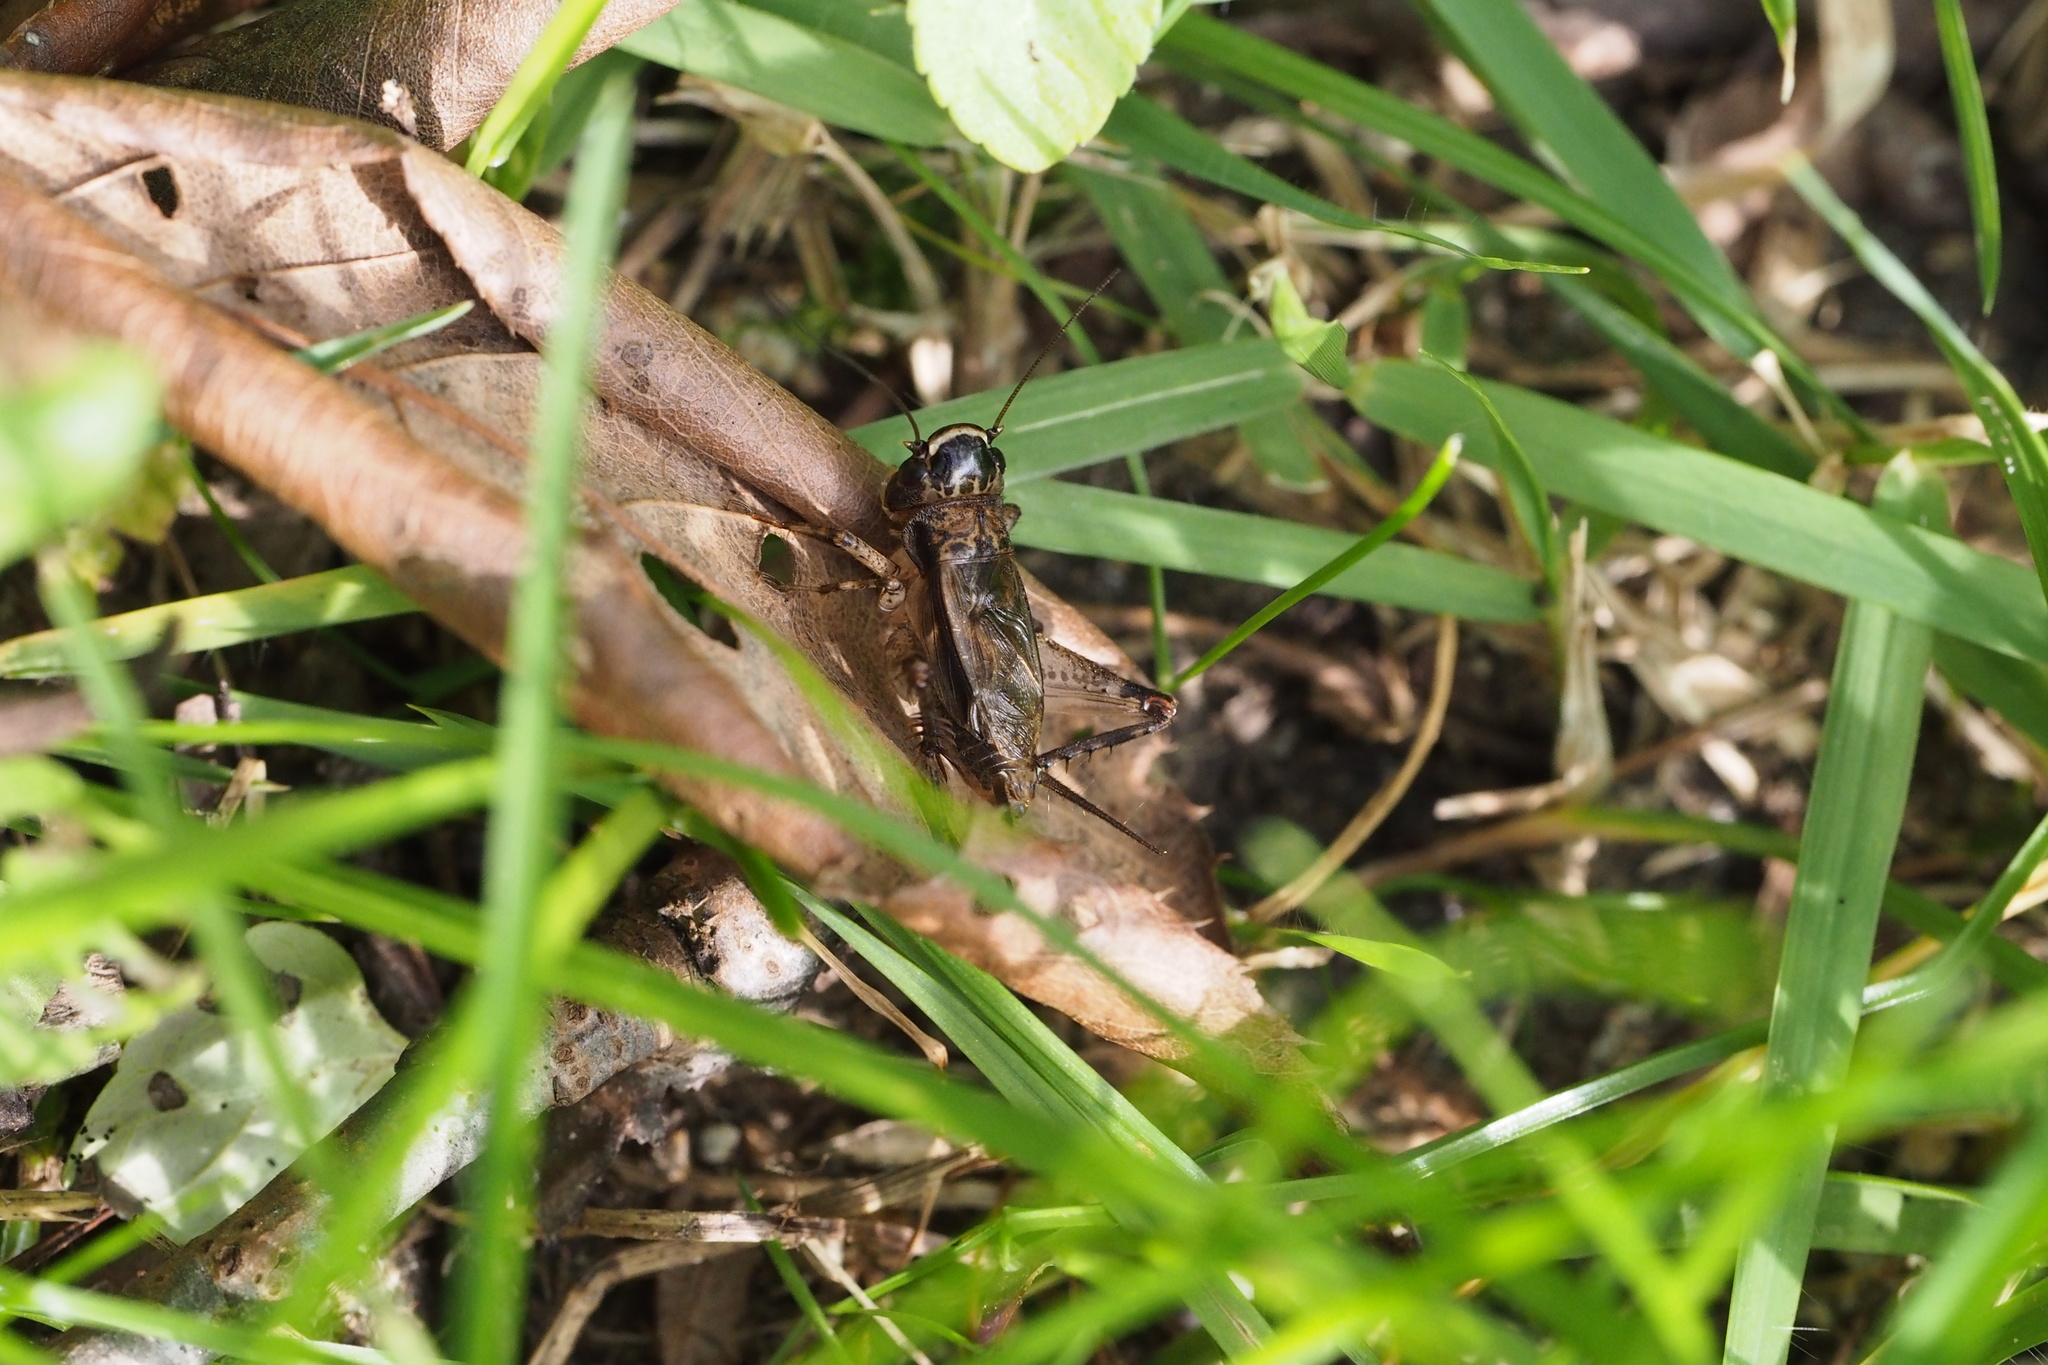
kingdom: Animalia
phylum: Arthropoda
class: Insecta
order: Orthoptera
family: Gryllidae
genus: Loxoblemmus
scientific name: Loxoblemmus sylvestris
